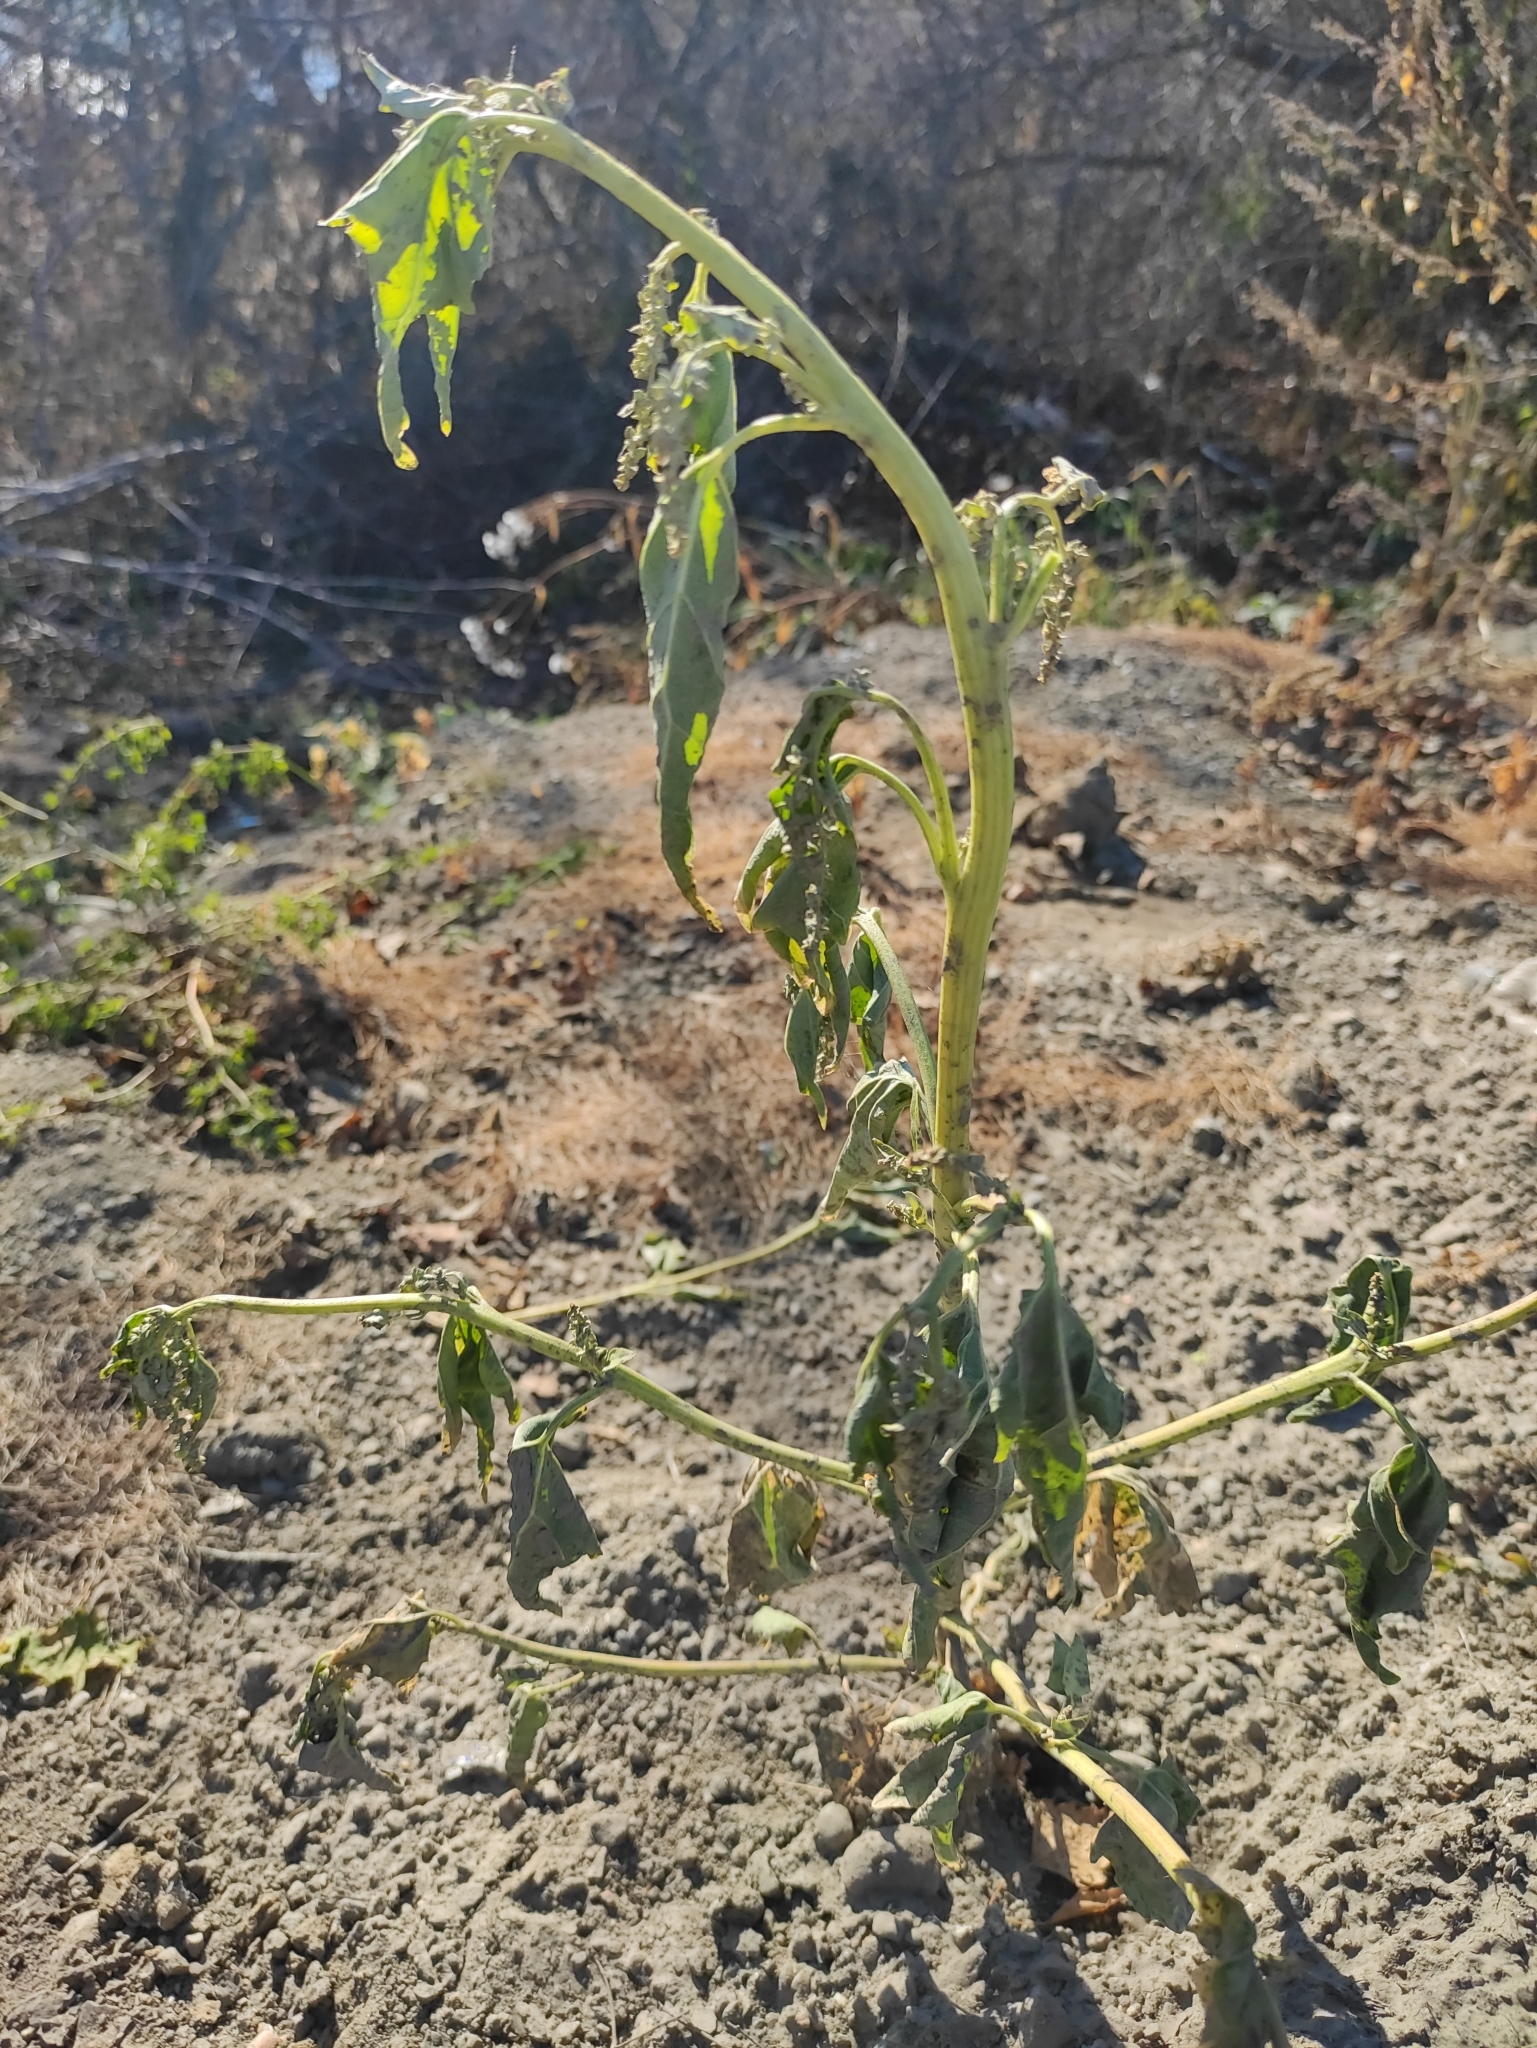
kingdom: Plantae
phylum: Tracheophyta
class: Magnoliopsida
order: Caryophyllales
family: Amaranthaceae
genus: Atriplex
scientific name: Atriplex sagittata
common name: Purple orache
